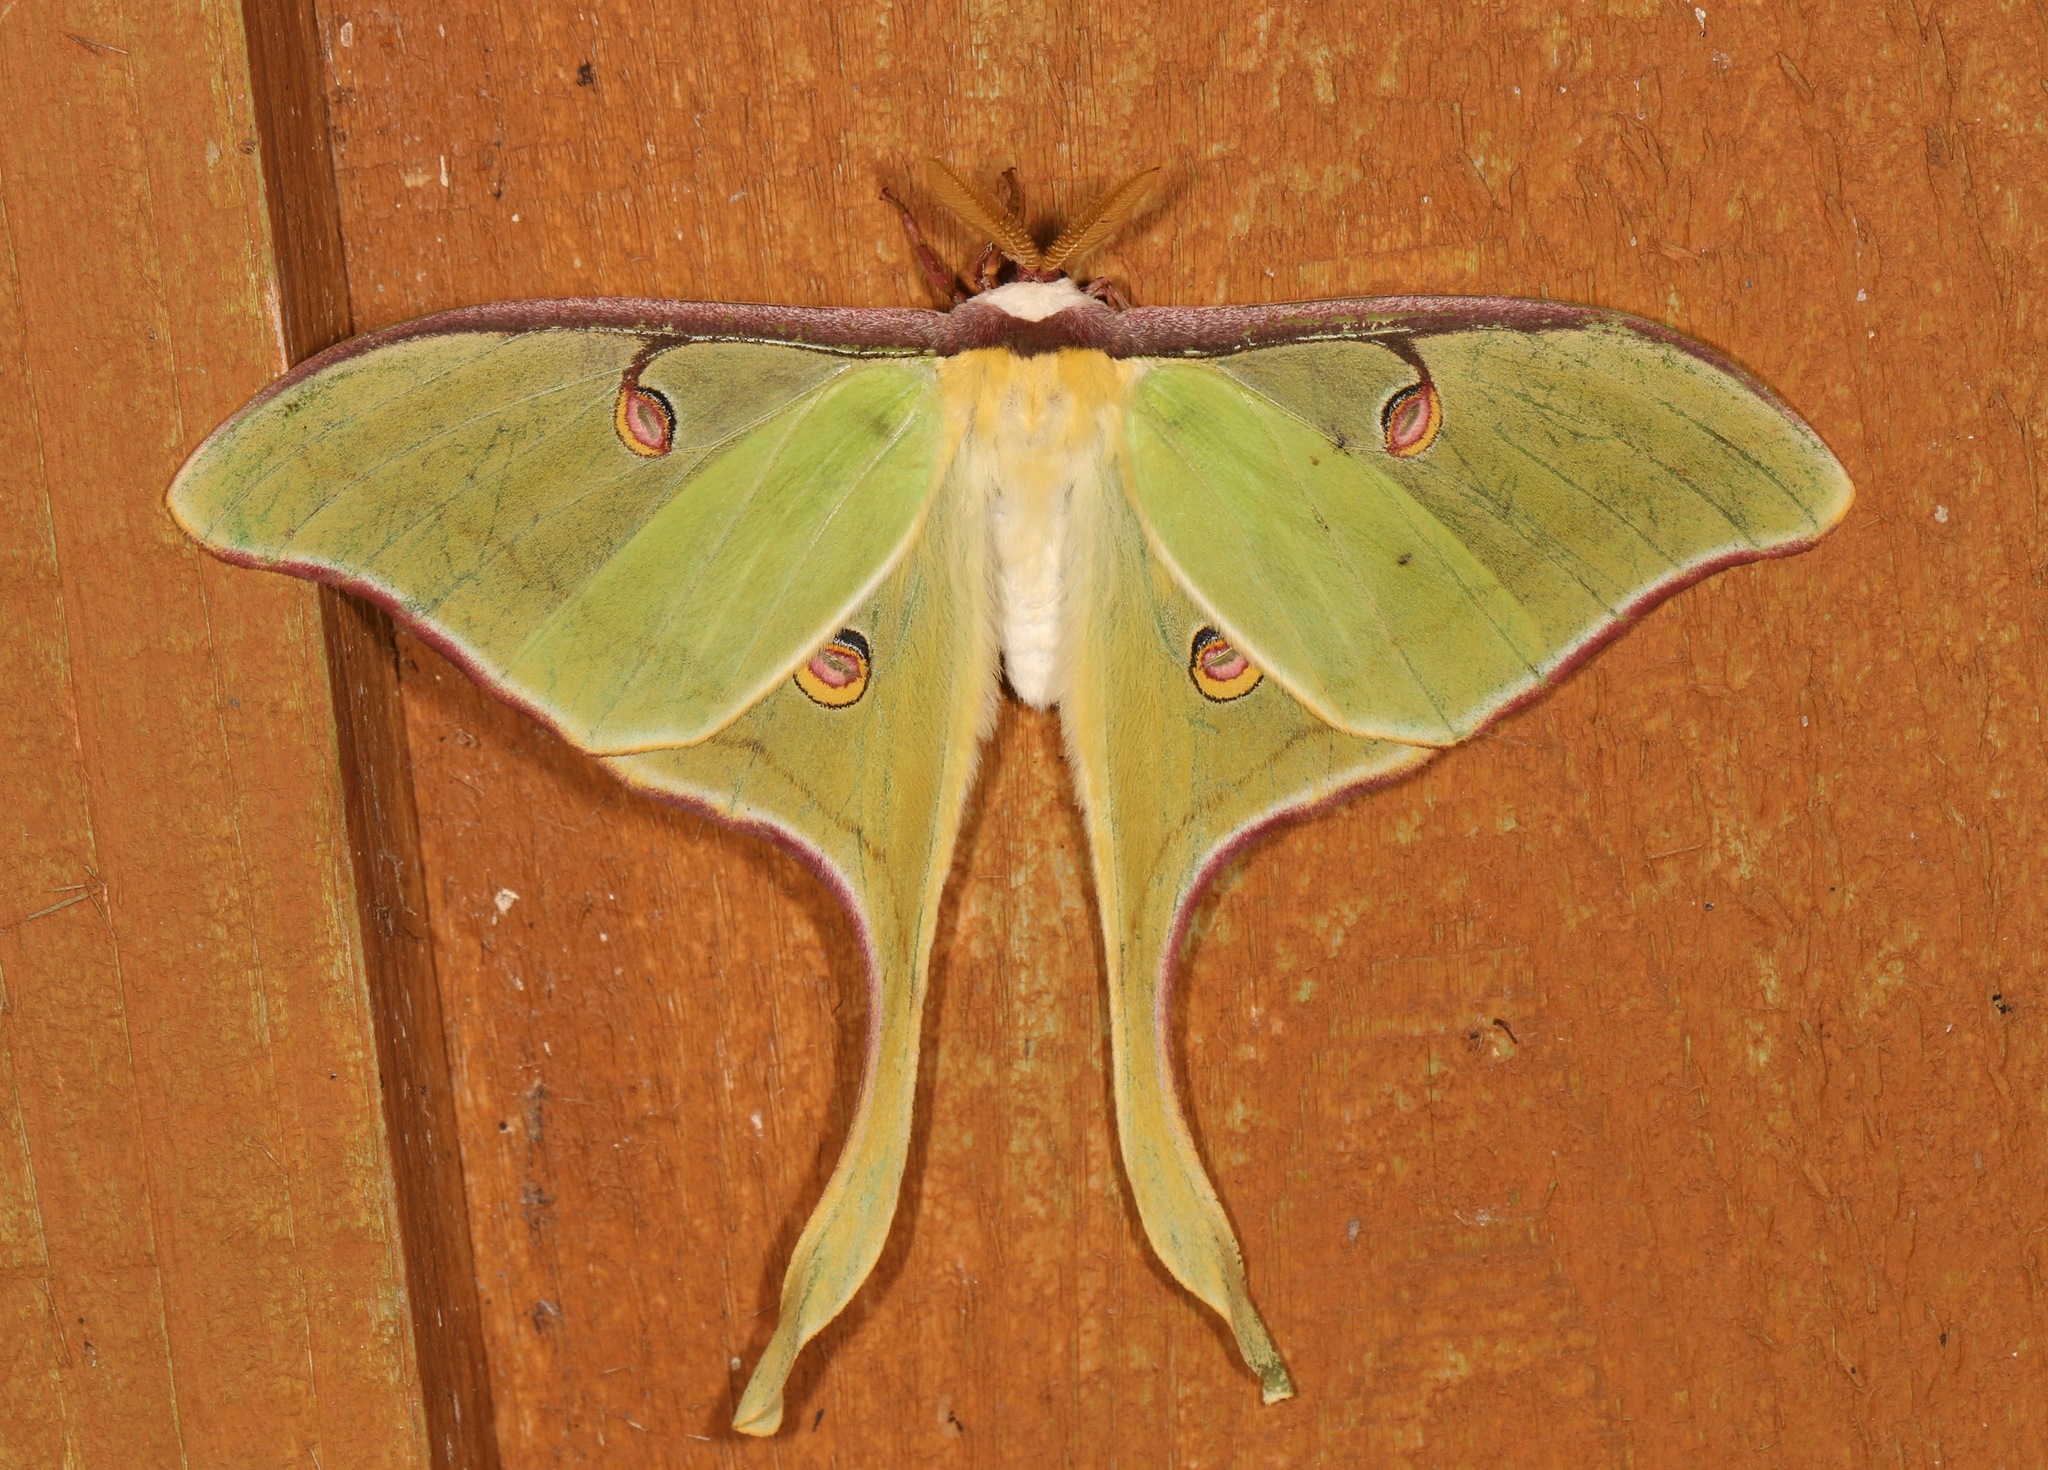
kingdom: Animalia
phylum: Arthropoda
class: Insecta
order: Lepidoptera
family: Saturniidae
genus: Actias
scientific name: Actias luna
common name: Luna moth
